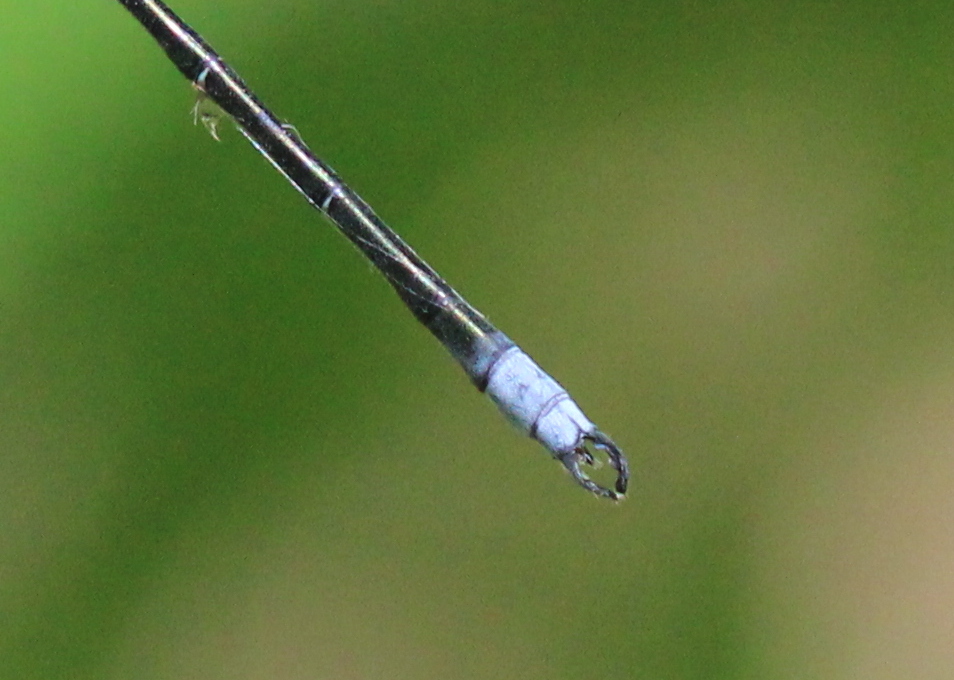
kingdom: Animalia
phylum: Arthropoda
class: Insecta
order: Odonata
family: Lestidae
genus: Lestes
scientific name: Lestes eurinus
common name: Amber-winged spreadwing
